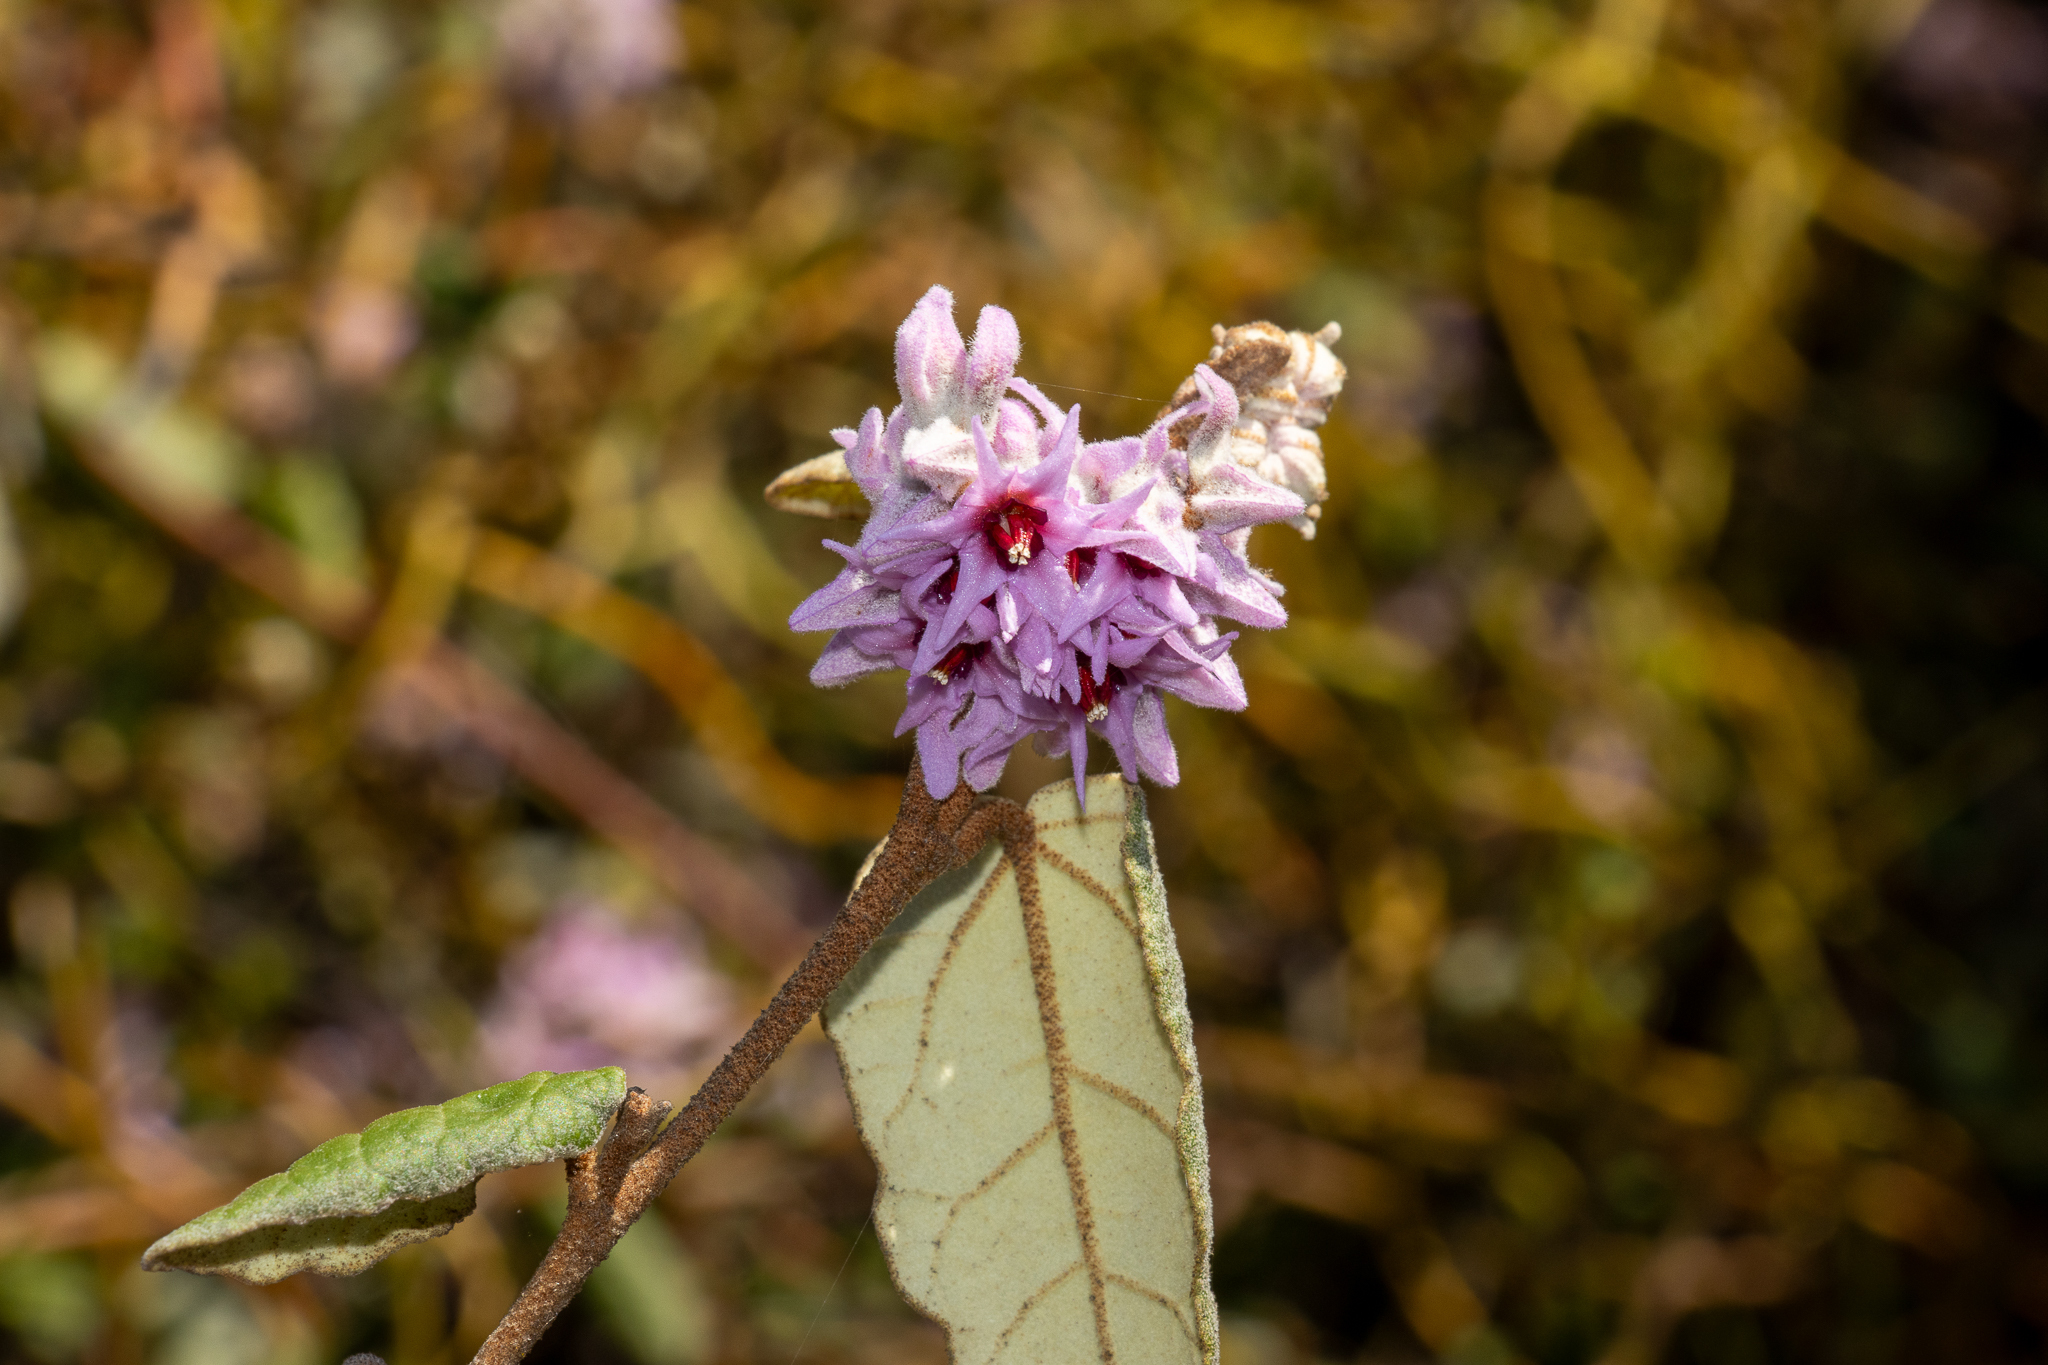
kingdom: Plantae
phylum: Tracheophyta
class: Magnoliopsida
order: Malvales
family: Malvaceae
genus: Lasiopetalum
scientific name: Lasiopetalum discolor
